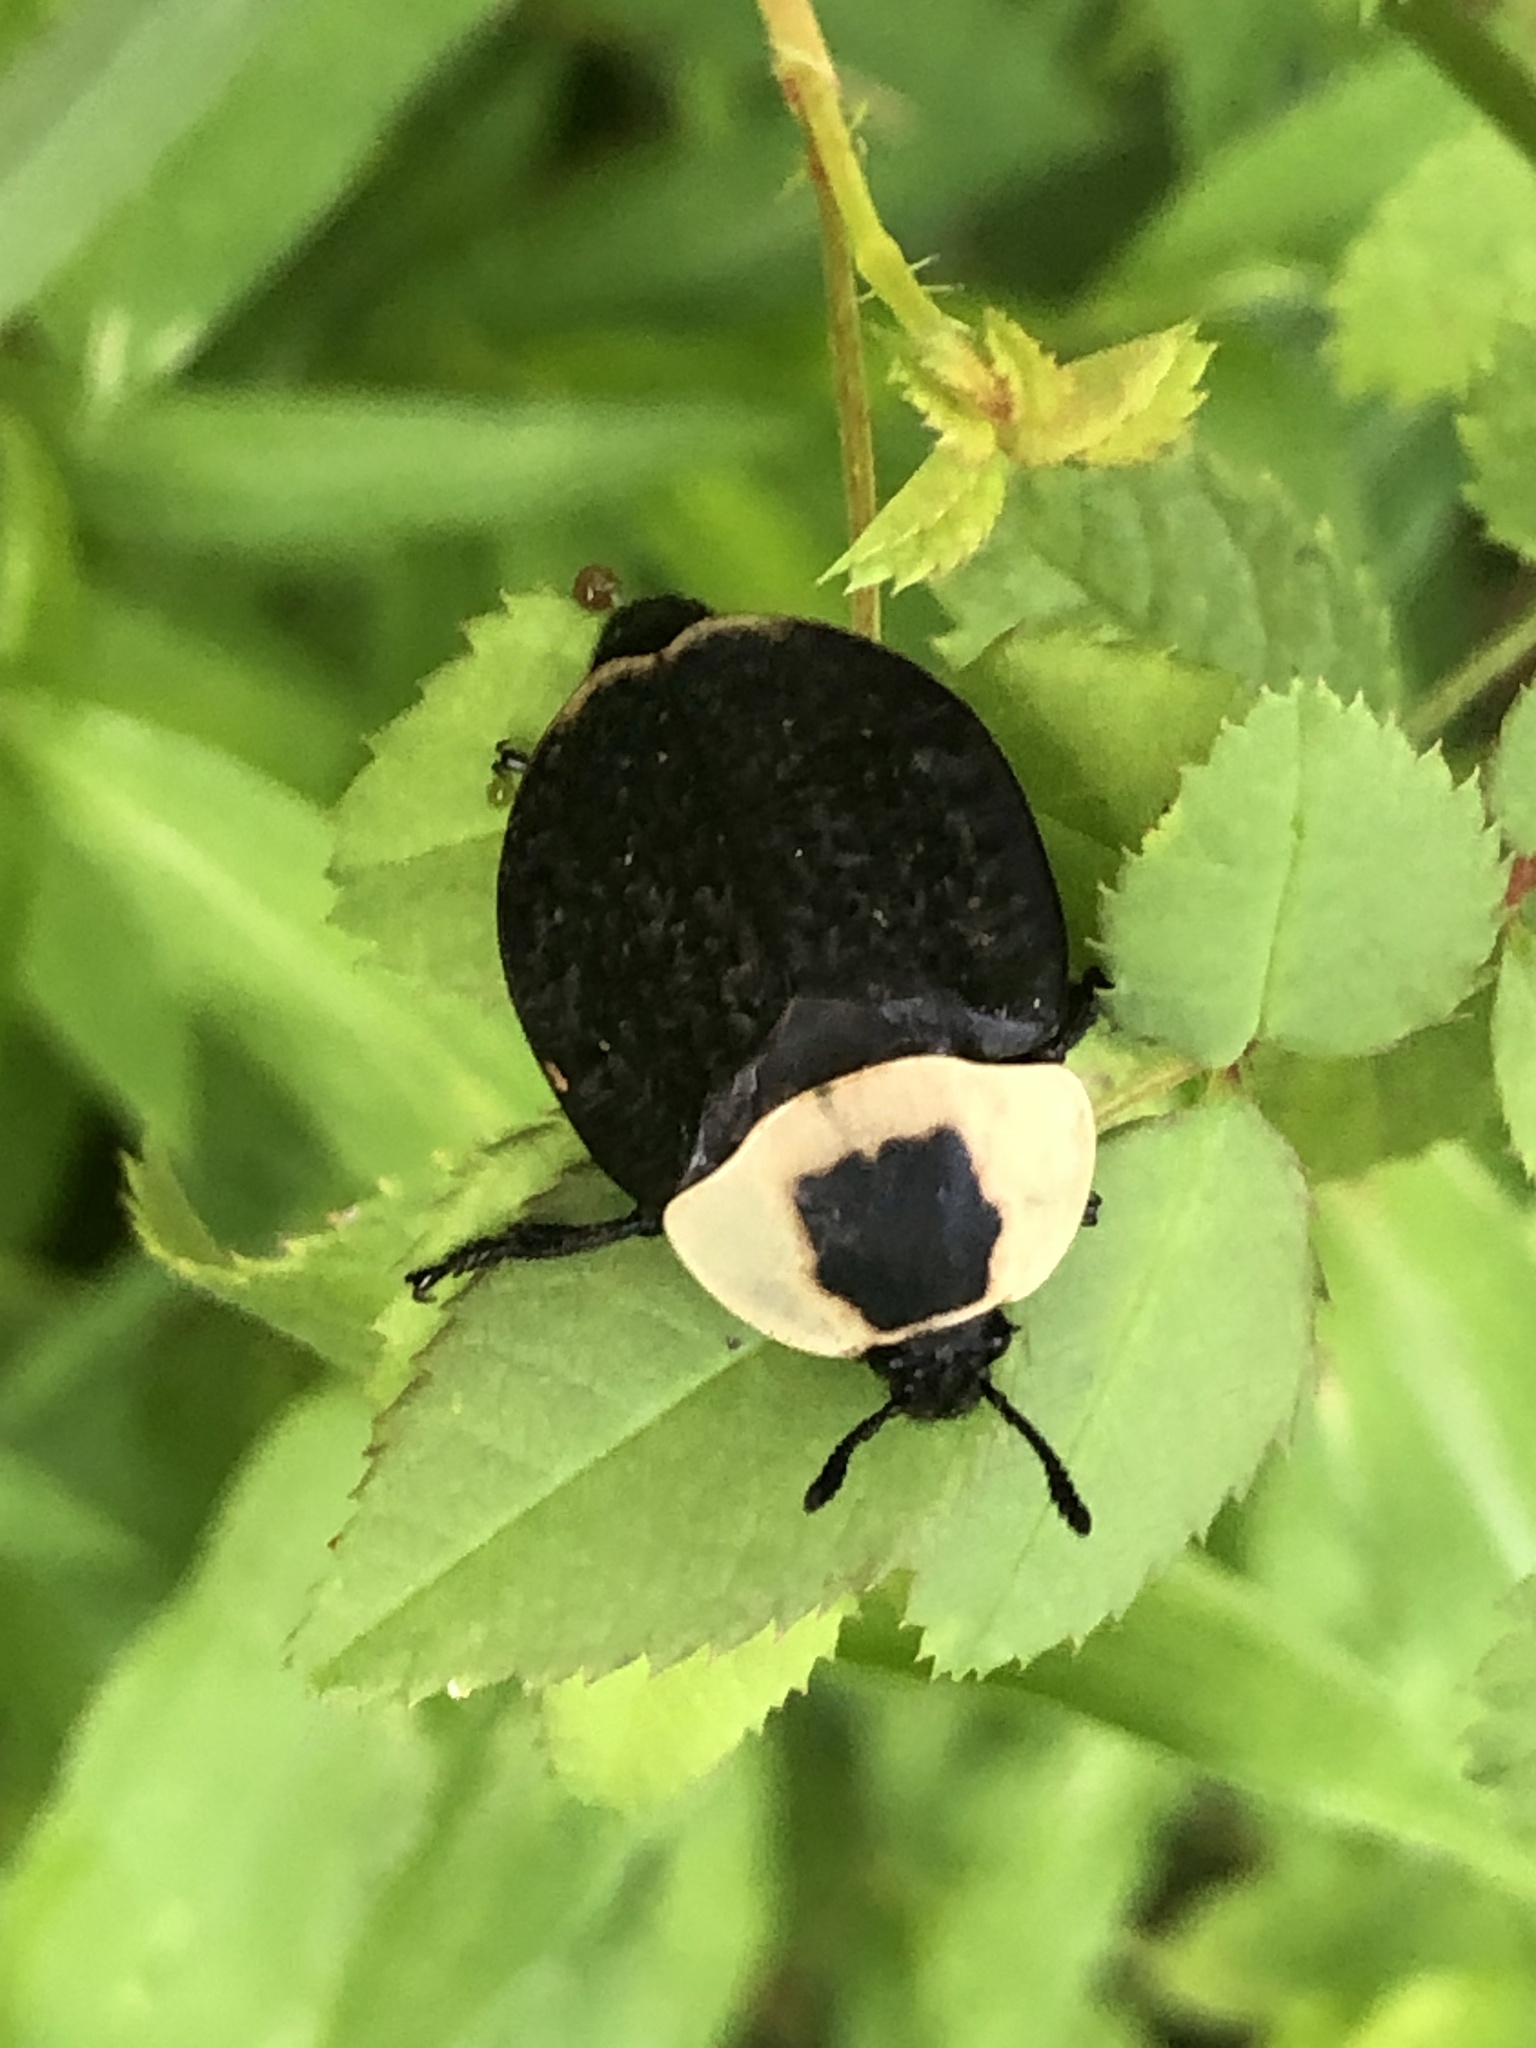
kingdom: Animalia
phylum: Arthropoda
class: Insecta
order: Coleoptera
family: Staphylinidae
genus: Necrophila
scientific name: Necrophila americana
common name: American carrion beetle
